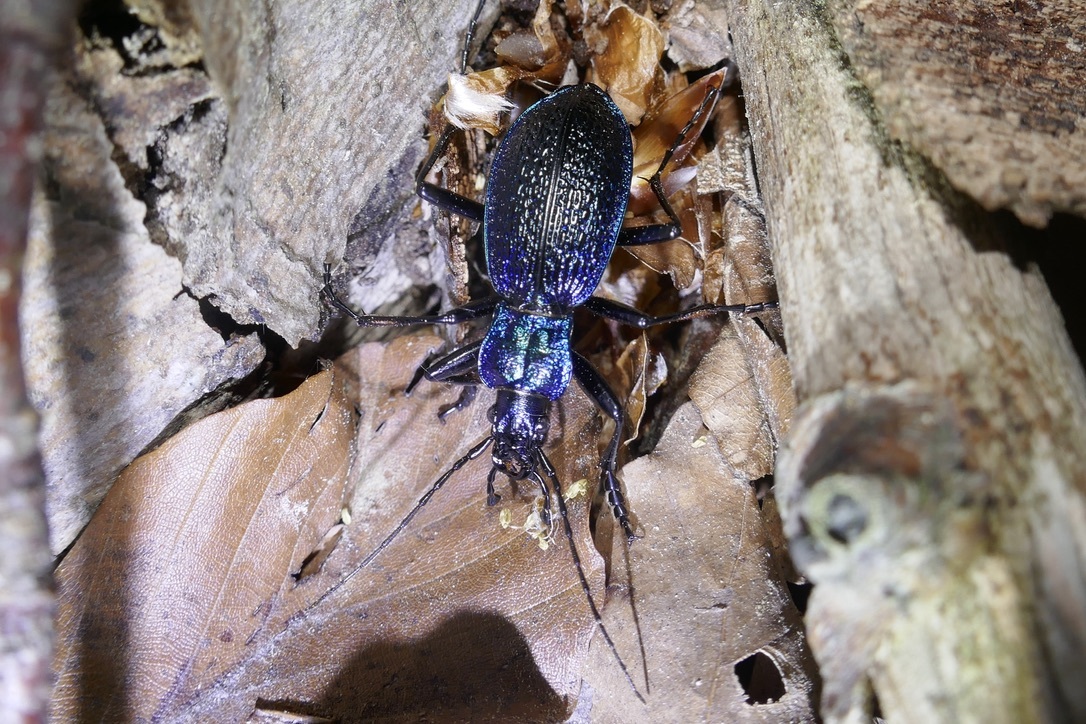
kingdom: Animalia
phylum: Arthropoda
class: Insecta
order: Coleoptera
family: Carabidae
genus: Carabus
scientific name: Carabus intricatus
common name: Blue ground beetle
